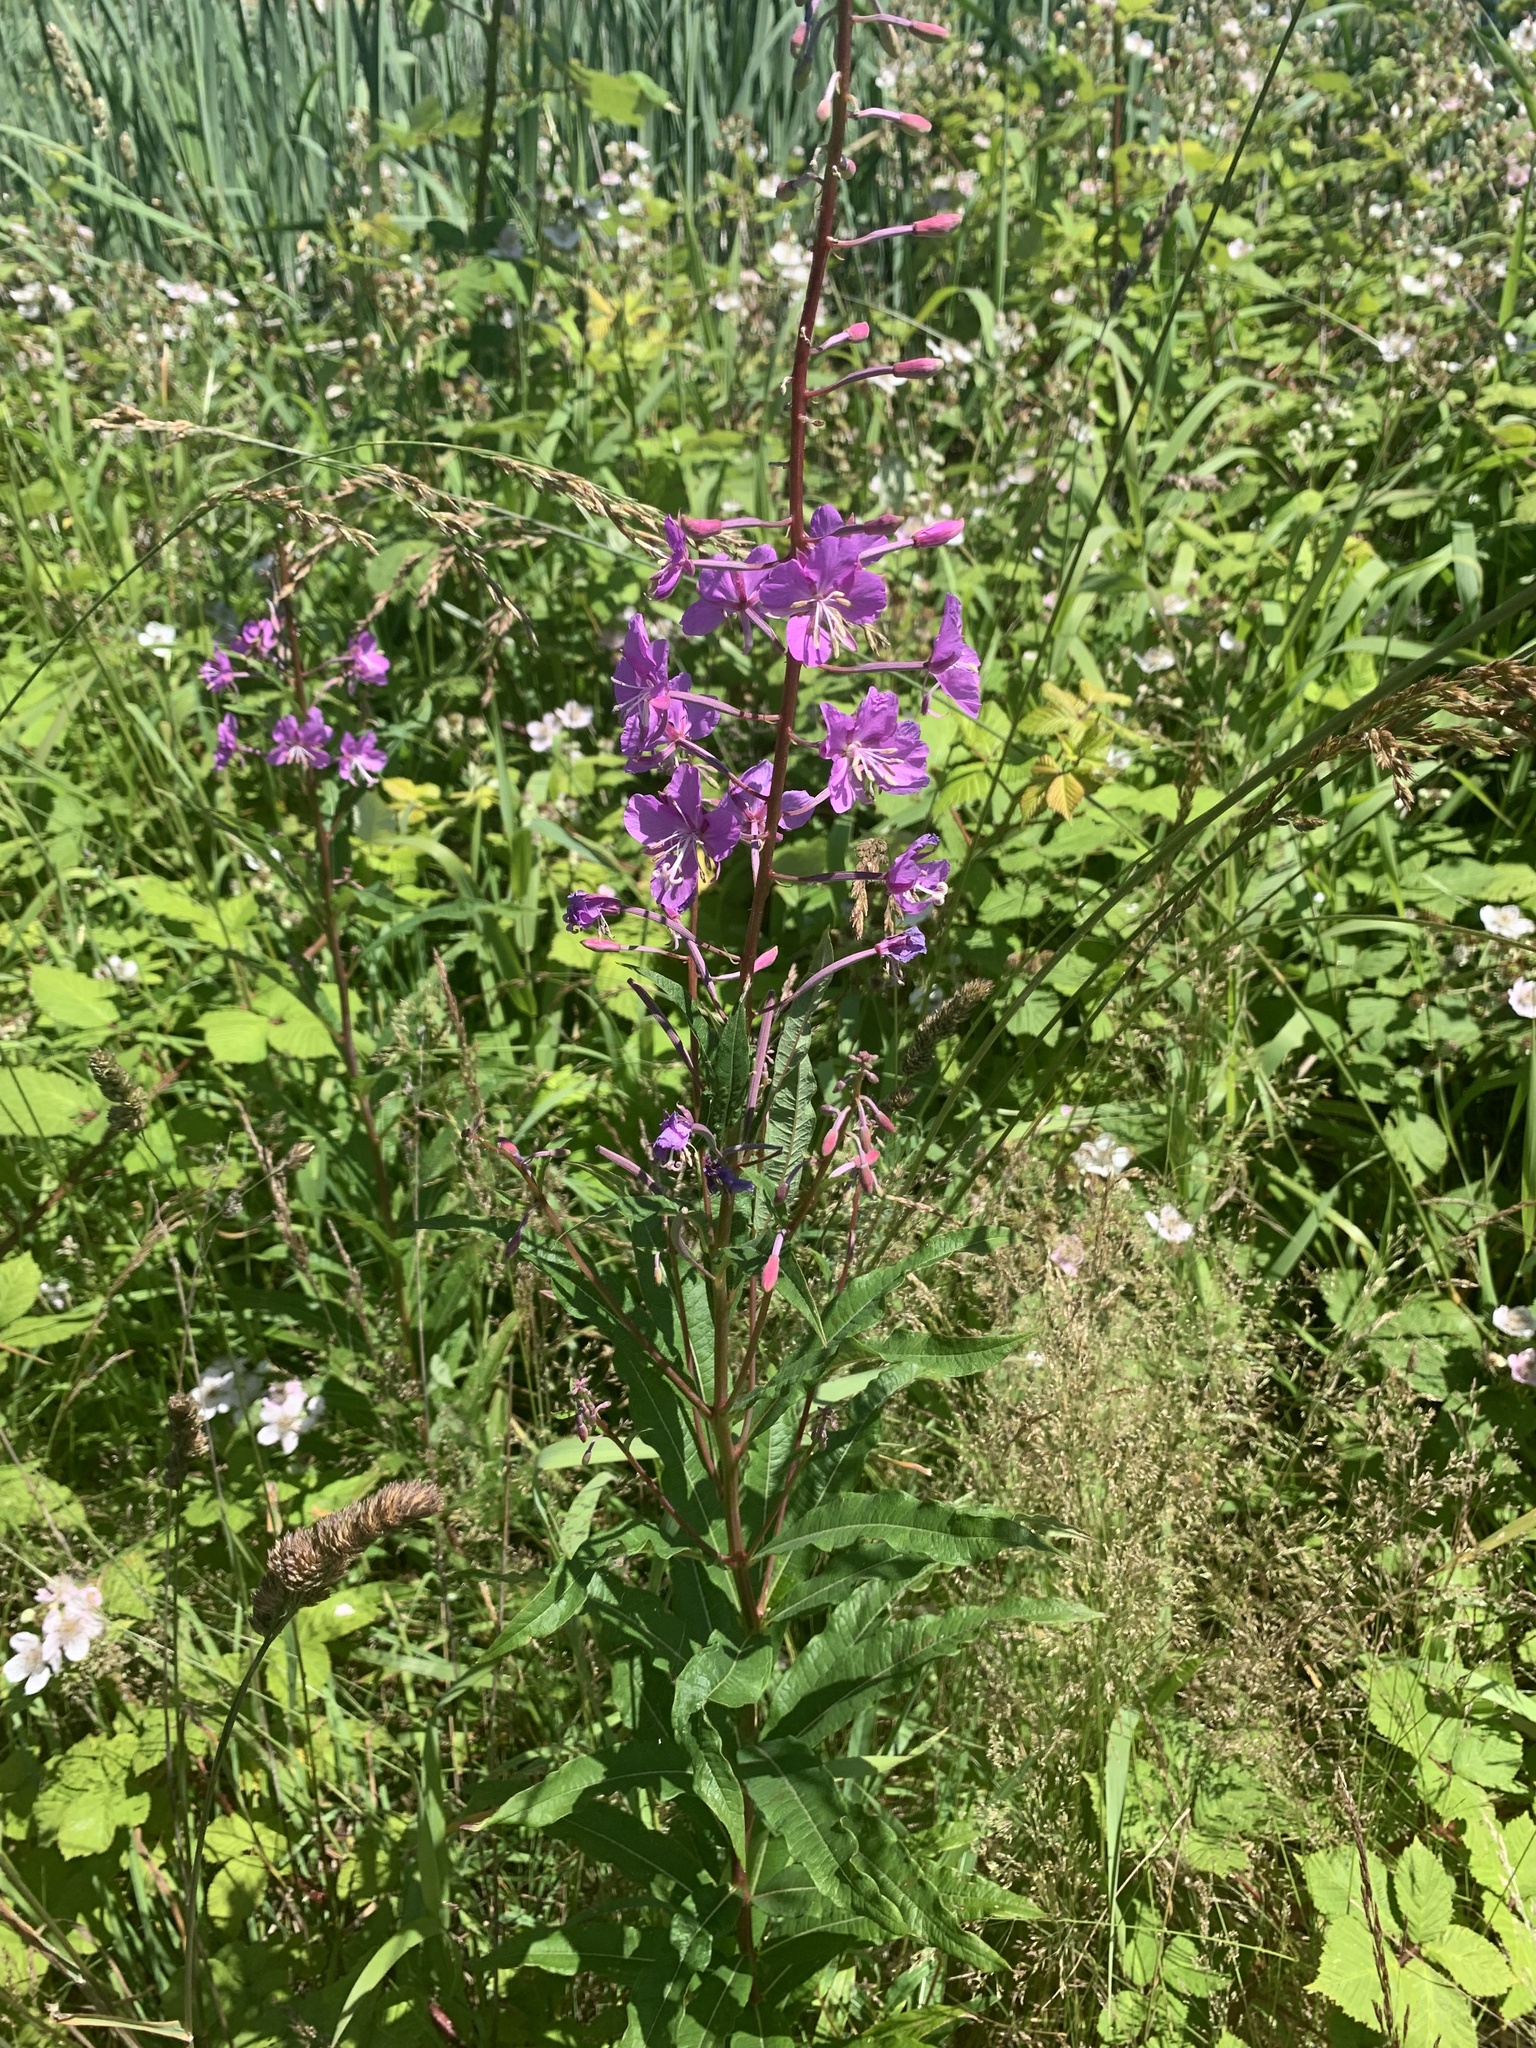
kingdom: Plantae
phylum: Tracheophyta
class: Magnoliopsida
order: Myrtales
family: Onagraceae
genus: Chamaenerion
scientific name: Chamaenerion angustifolium
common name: Fireweed
